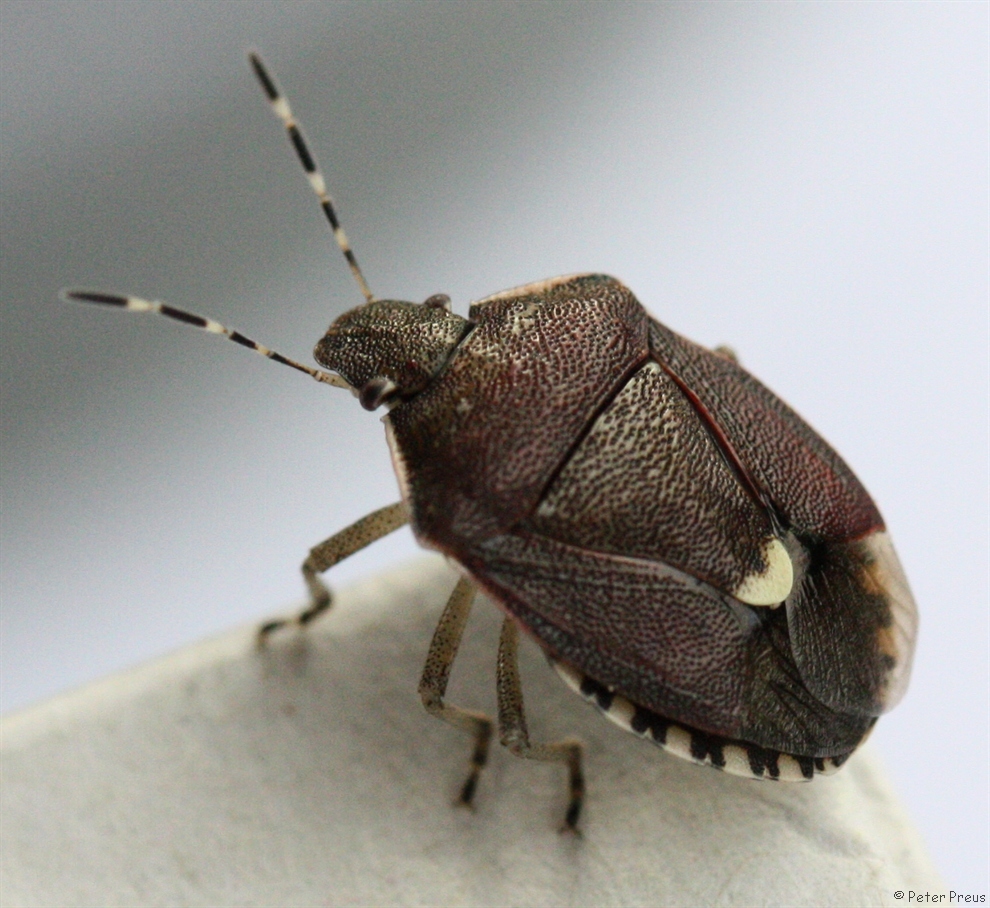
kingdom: Animalia
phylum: Arthropoda
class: Insecta
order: Hemiptera
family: Pentatomidae
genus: Holcostethus
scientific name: Holcostethus sphacelatus
